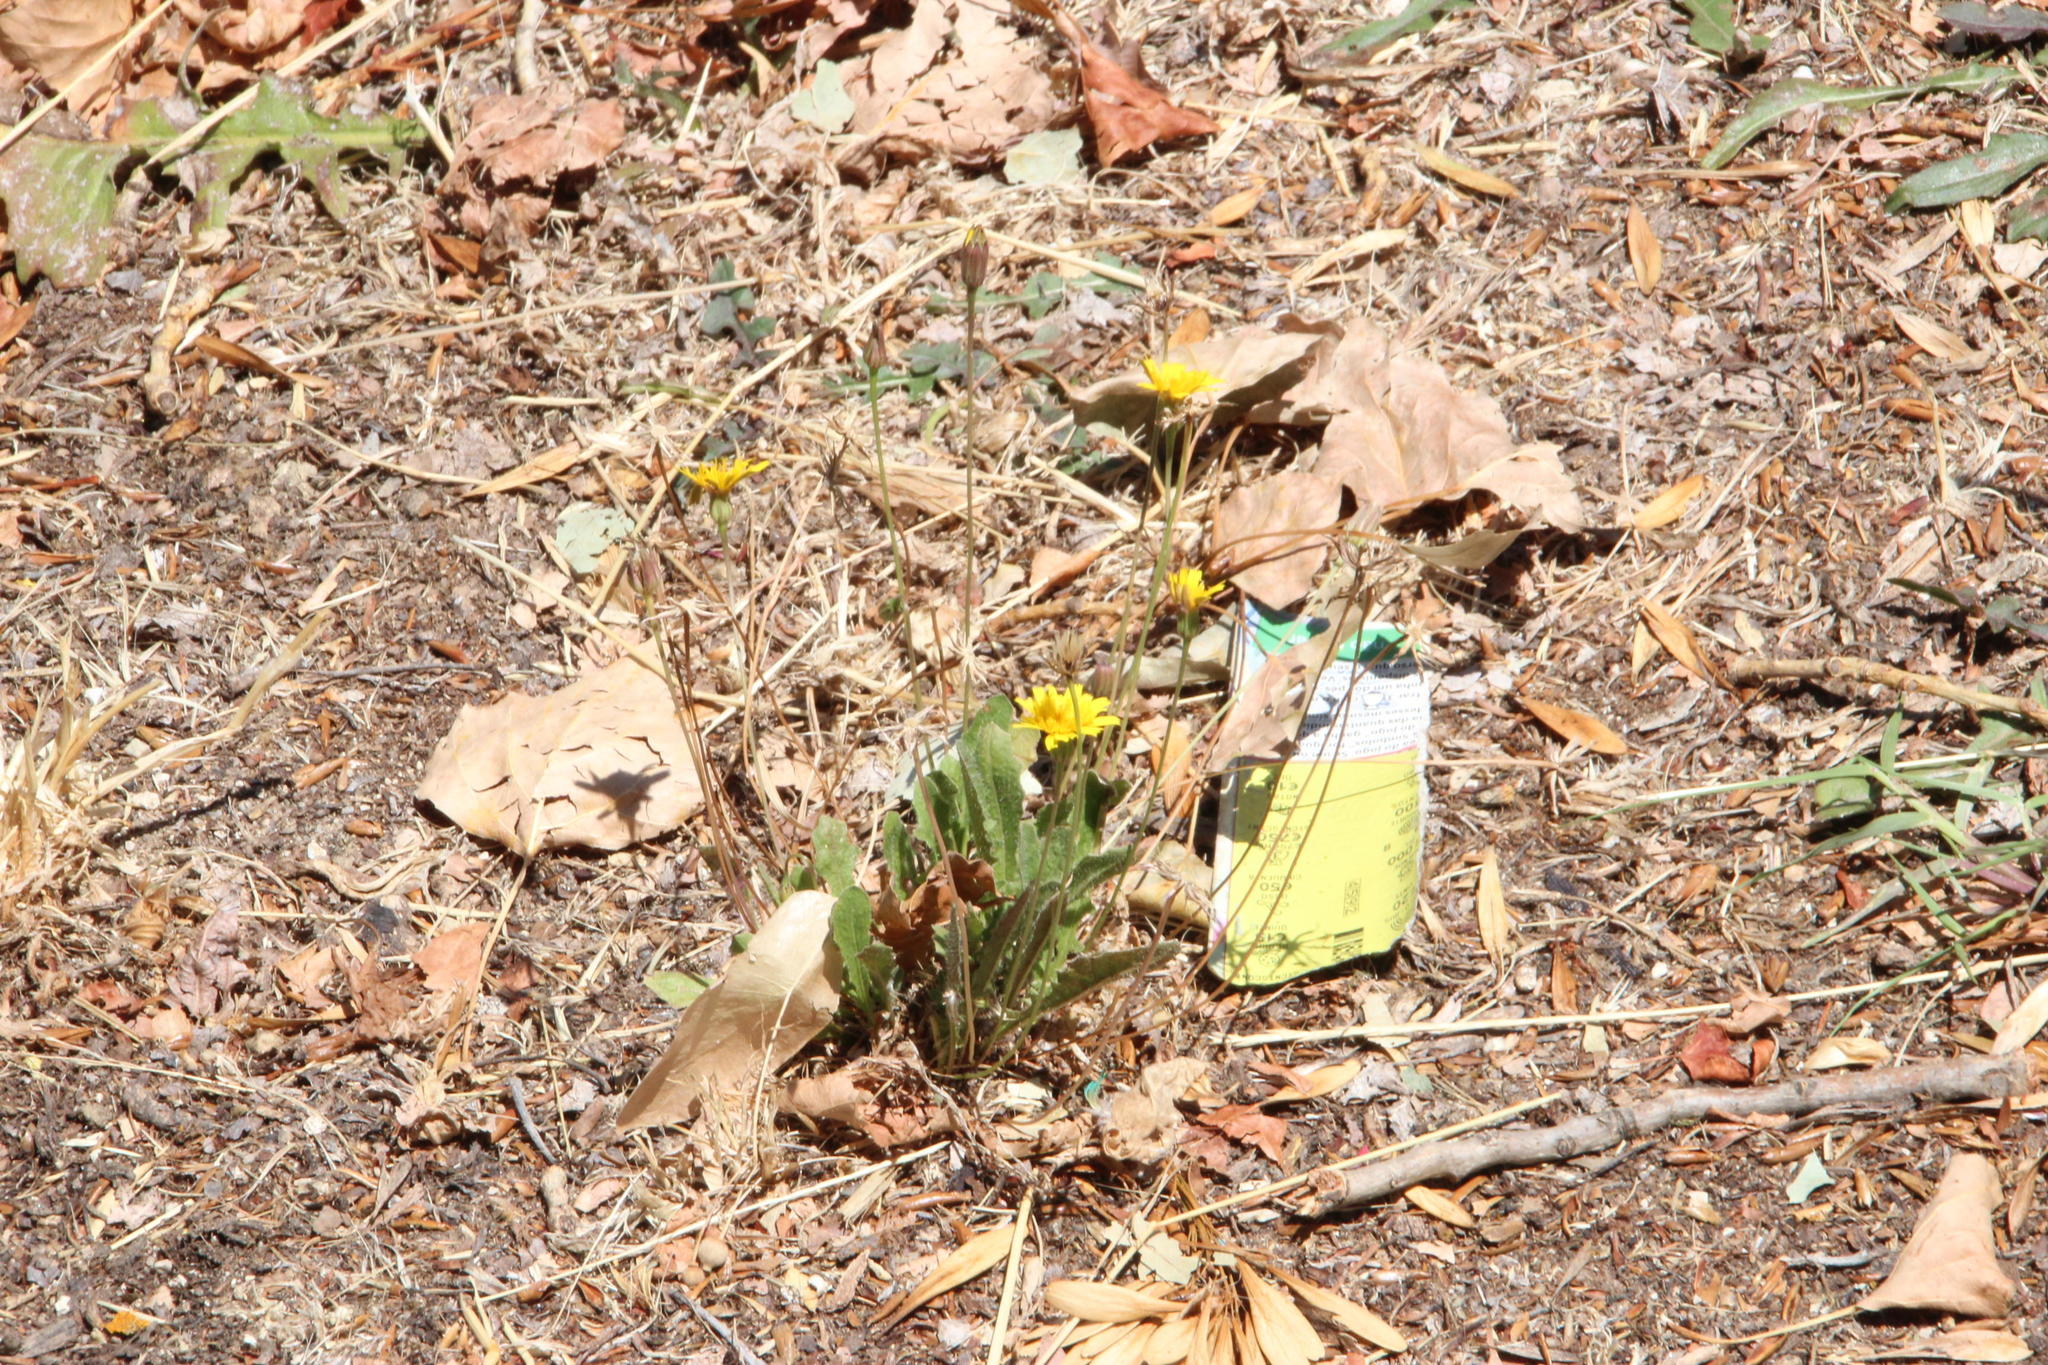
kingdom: Plantae
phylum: Tracheophyta
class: Magnoliopsida
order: Asterales
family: Asteraceae
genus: Thrincia
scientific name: Thrincia hispida
